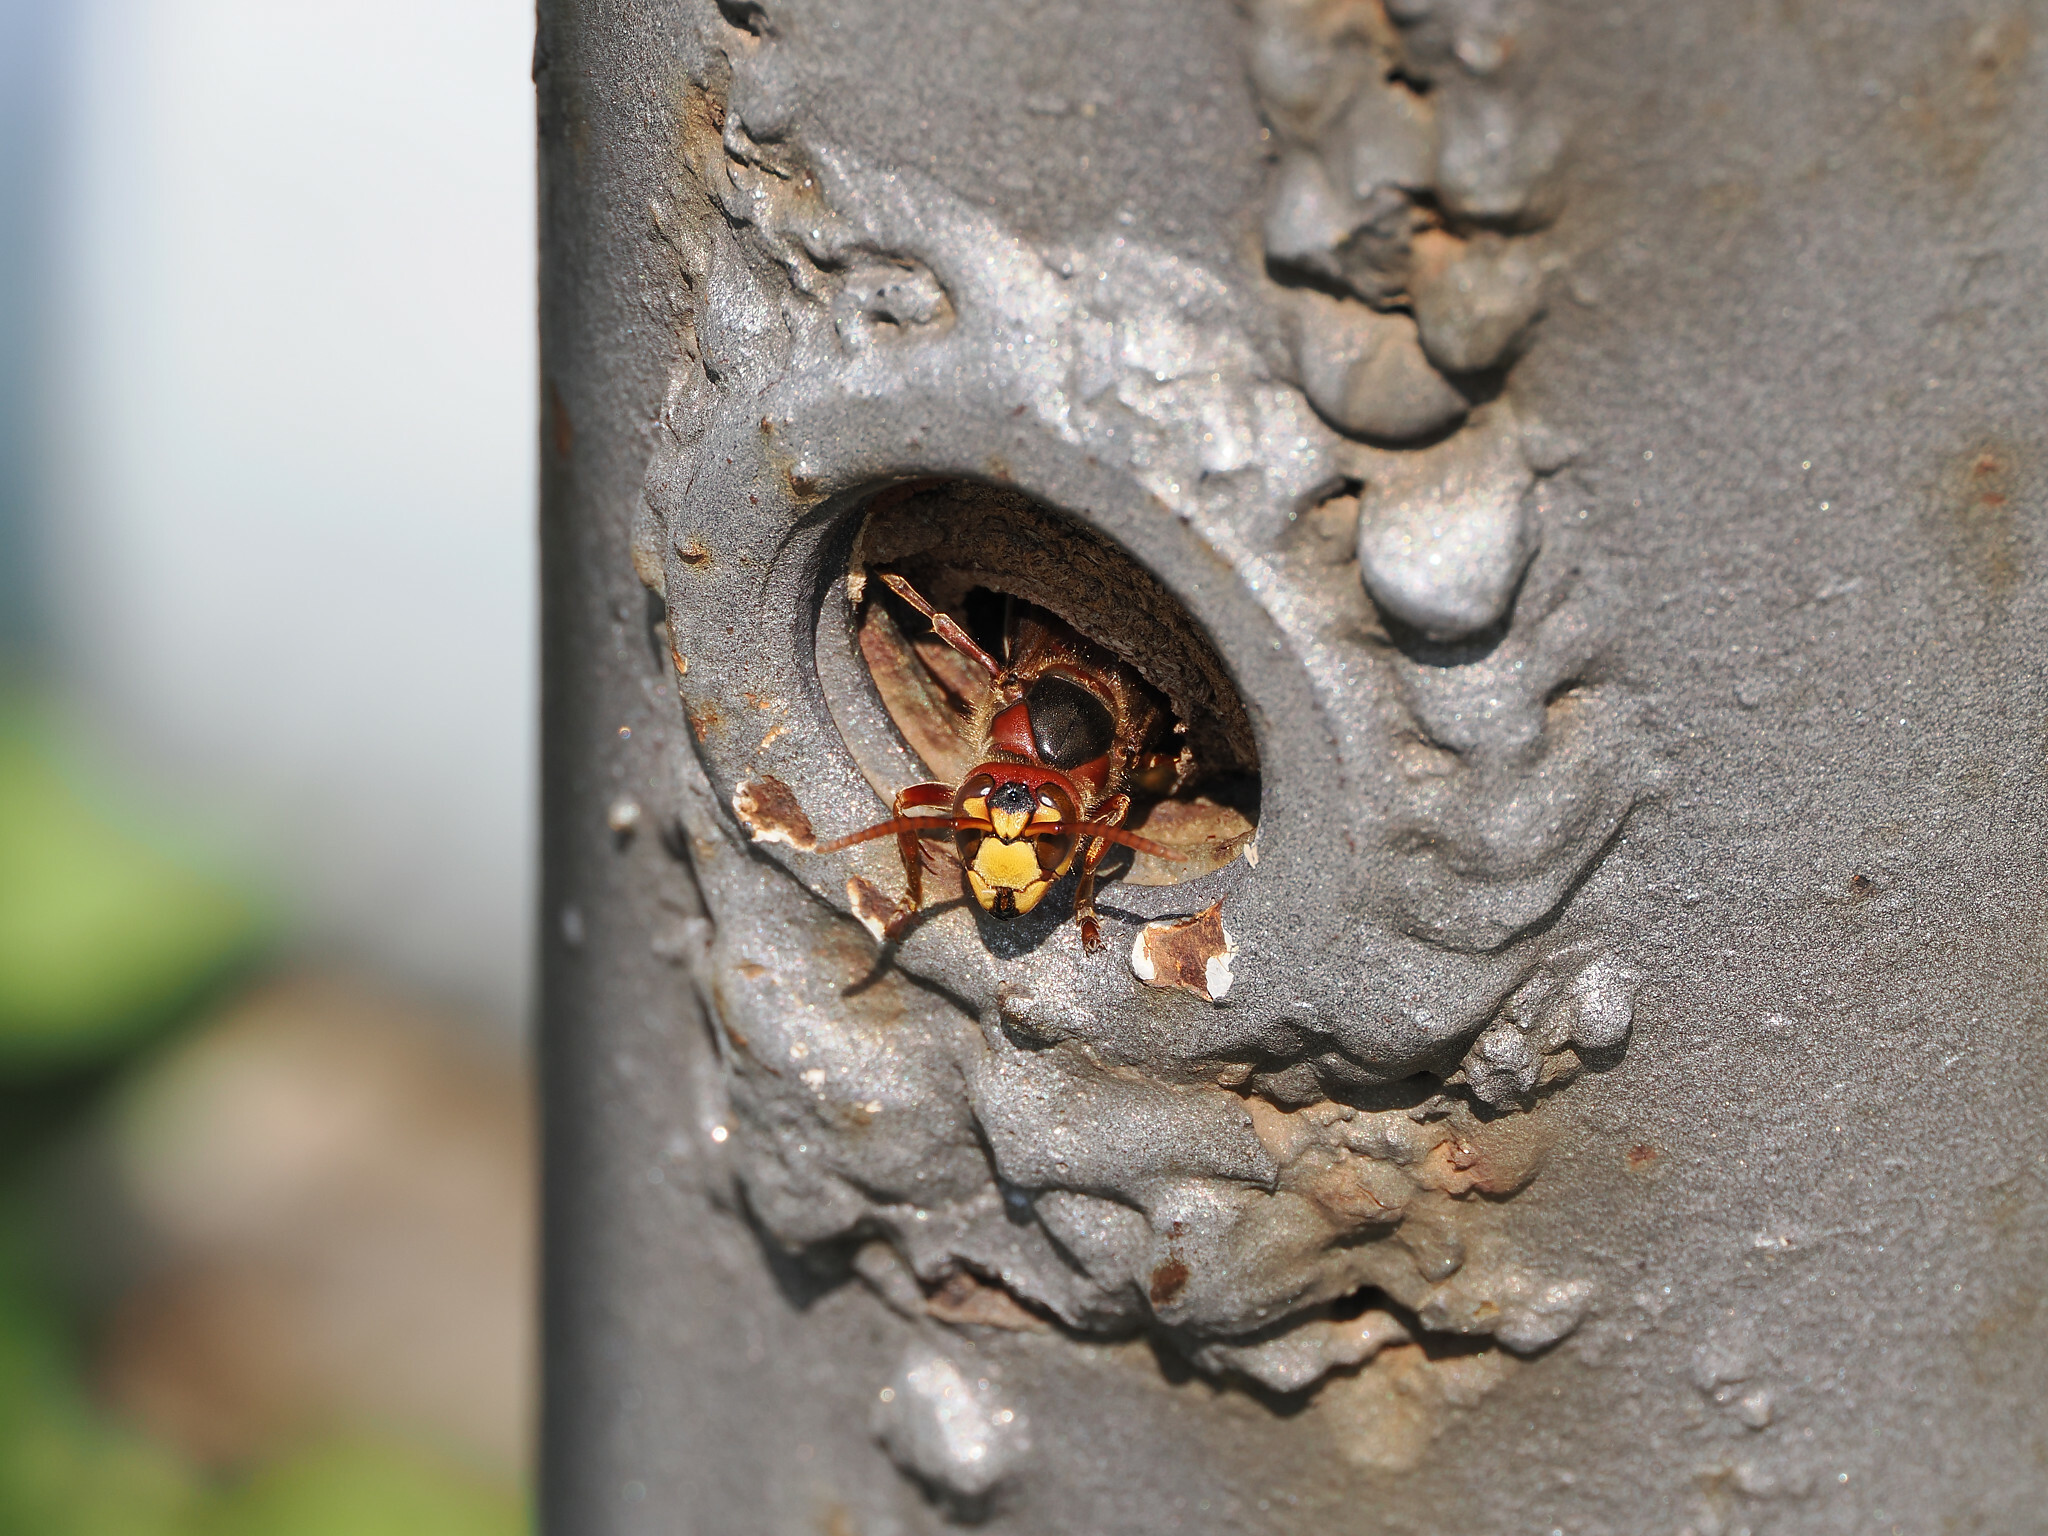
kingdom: Animalia
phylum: Arthropoda
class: Insecta
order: Hymenoptera
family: Vespidae
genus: Vespa
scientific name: Vespa crabro
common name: Hornet
